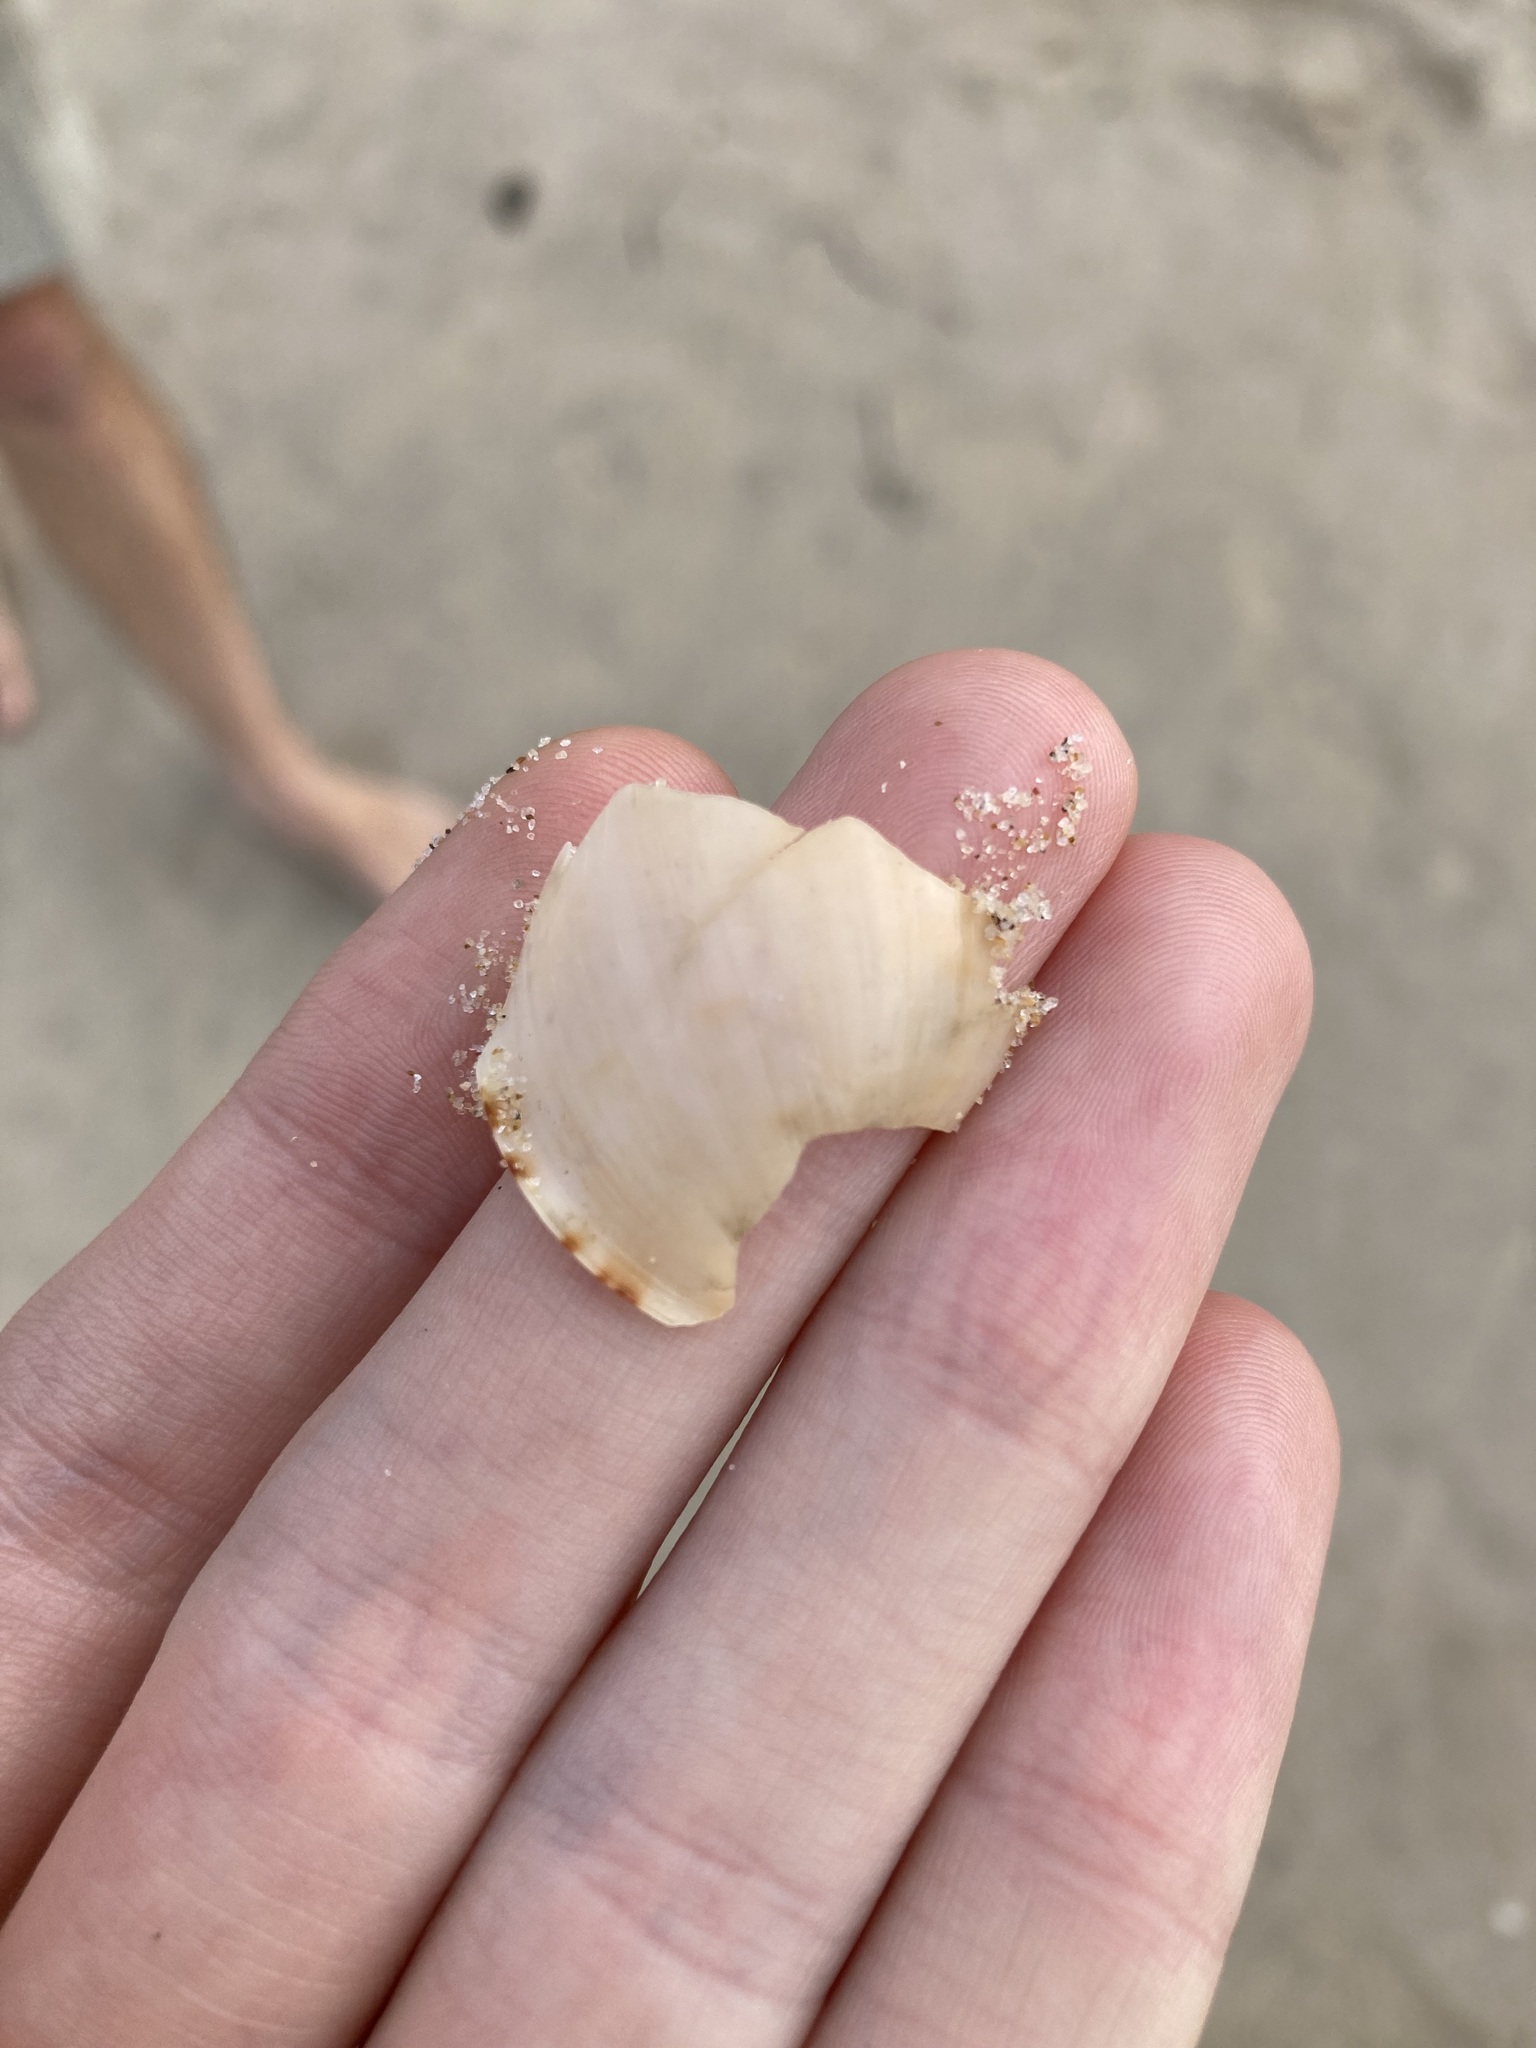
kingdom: Animalia
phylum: Mollusca
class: Gastropoda
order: Littorinimorpha
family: Cassidae
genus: Semicassis
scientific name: Semicassis labiata
